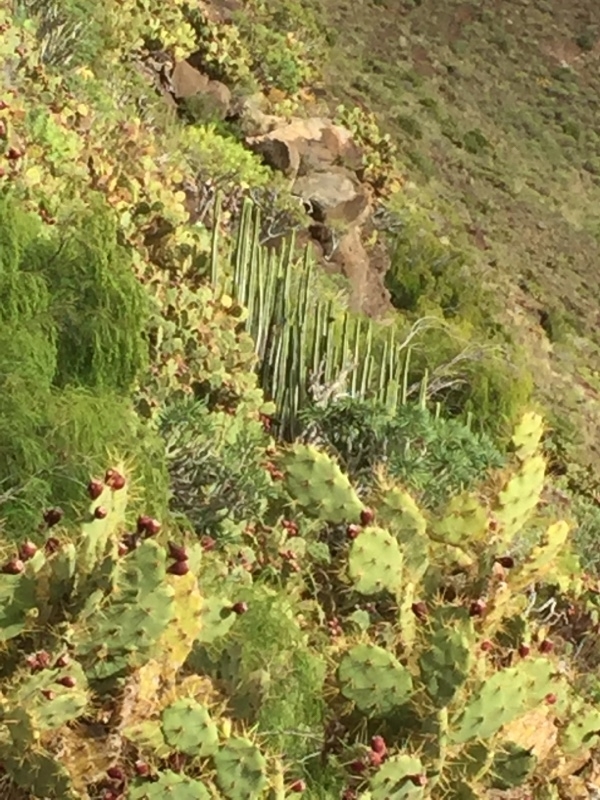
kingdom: Plantae
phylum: Tracheophyta
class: Magnoliopsida
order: Malpighiales
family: Euphorbiaceae
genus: Euphorbia
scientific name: Euphorbia canariensis
